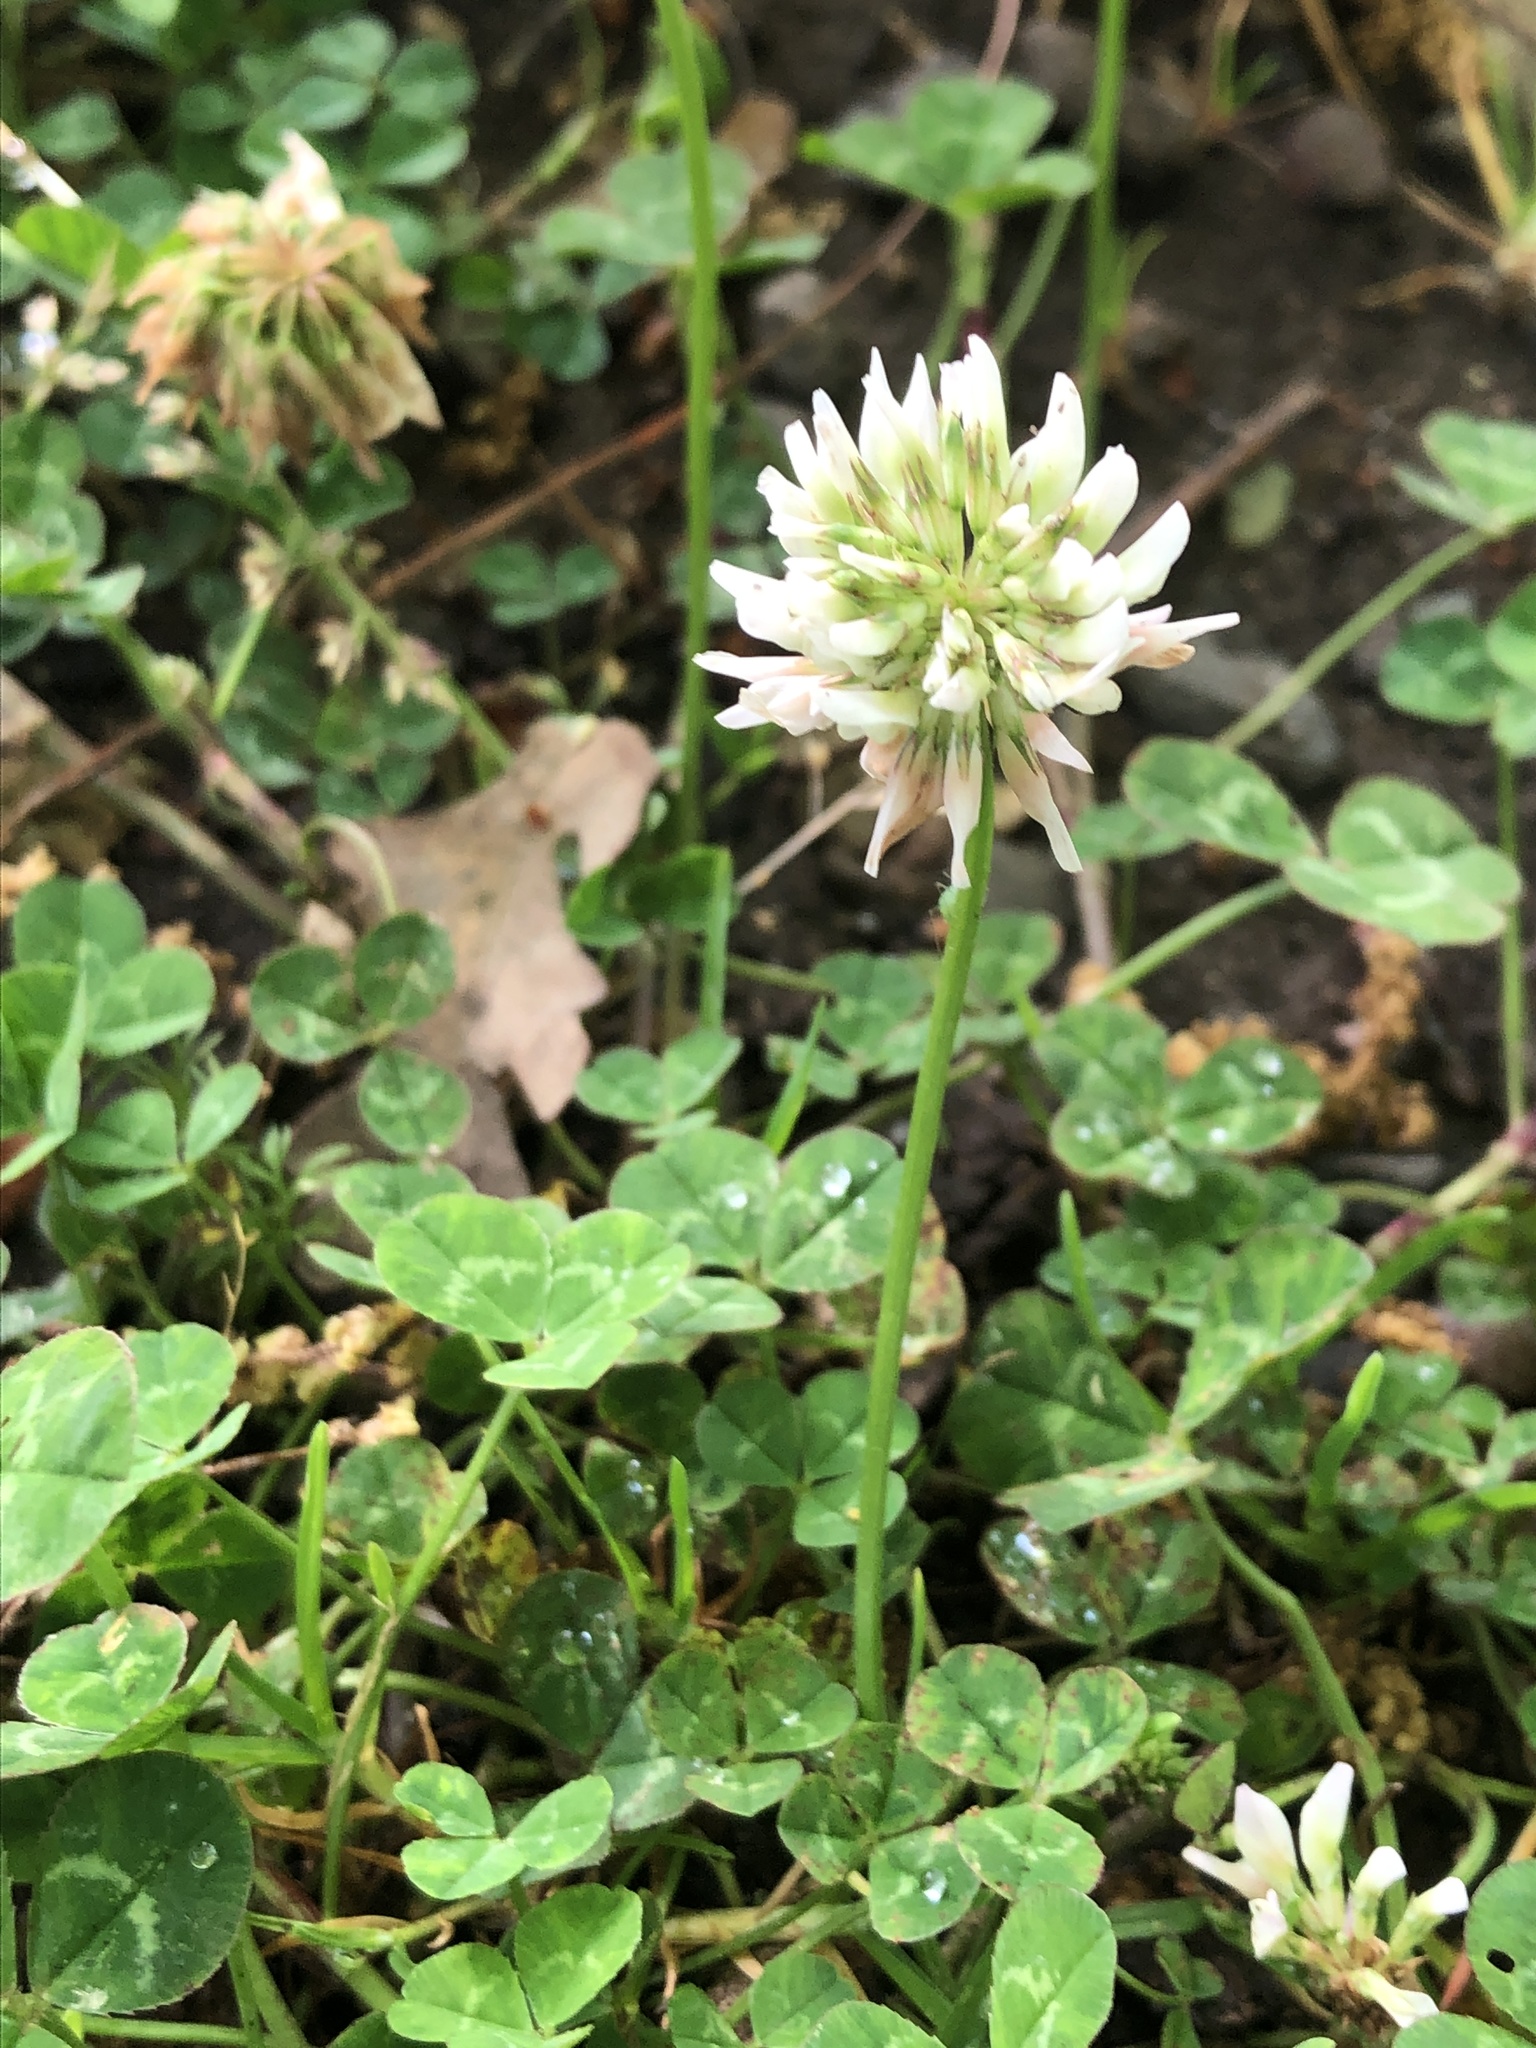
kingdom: Plantae
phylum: Tracheophyta
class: Magnoliopsida
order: Fabales
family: Fabaceae
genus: Trifolium
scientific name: Trifolium repens
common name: White clover
